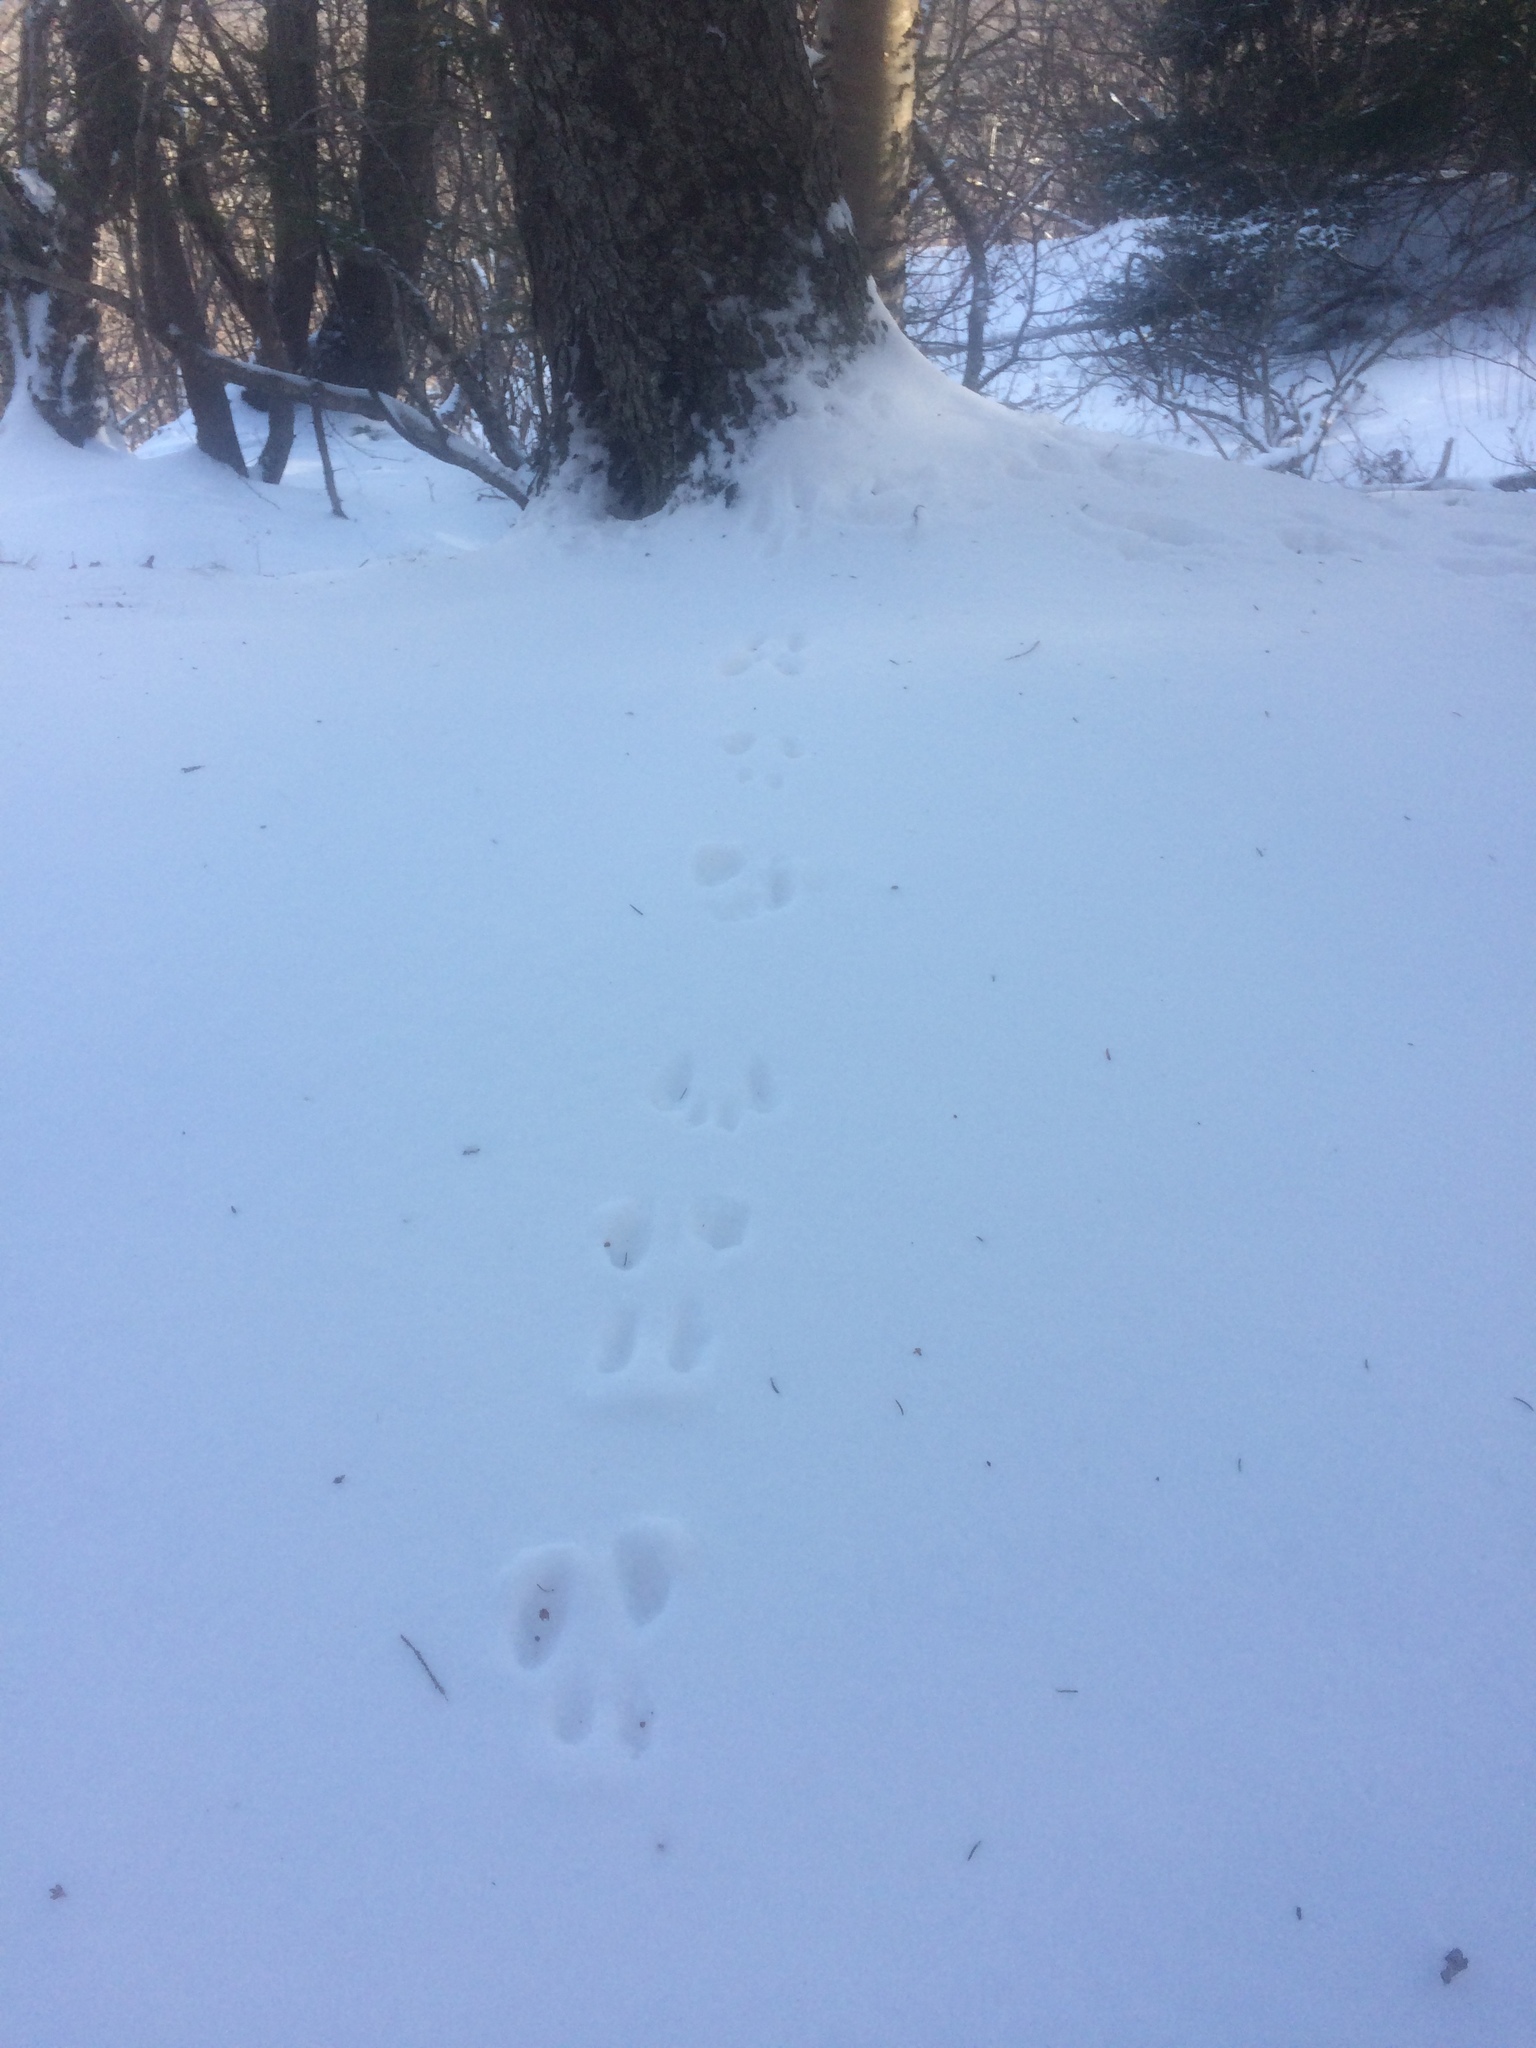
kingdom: Animalia
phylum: Chordata
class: Mammalia
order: Rodentia
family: Sciuridae
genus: Tamiasciurus
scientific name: Tamiasciurus hudsonicus
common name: Red squirrel
